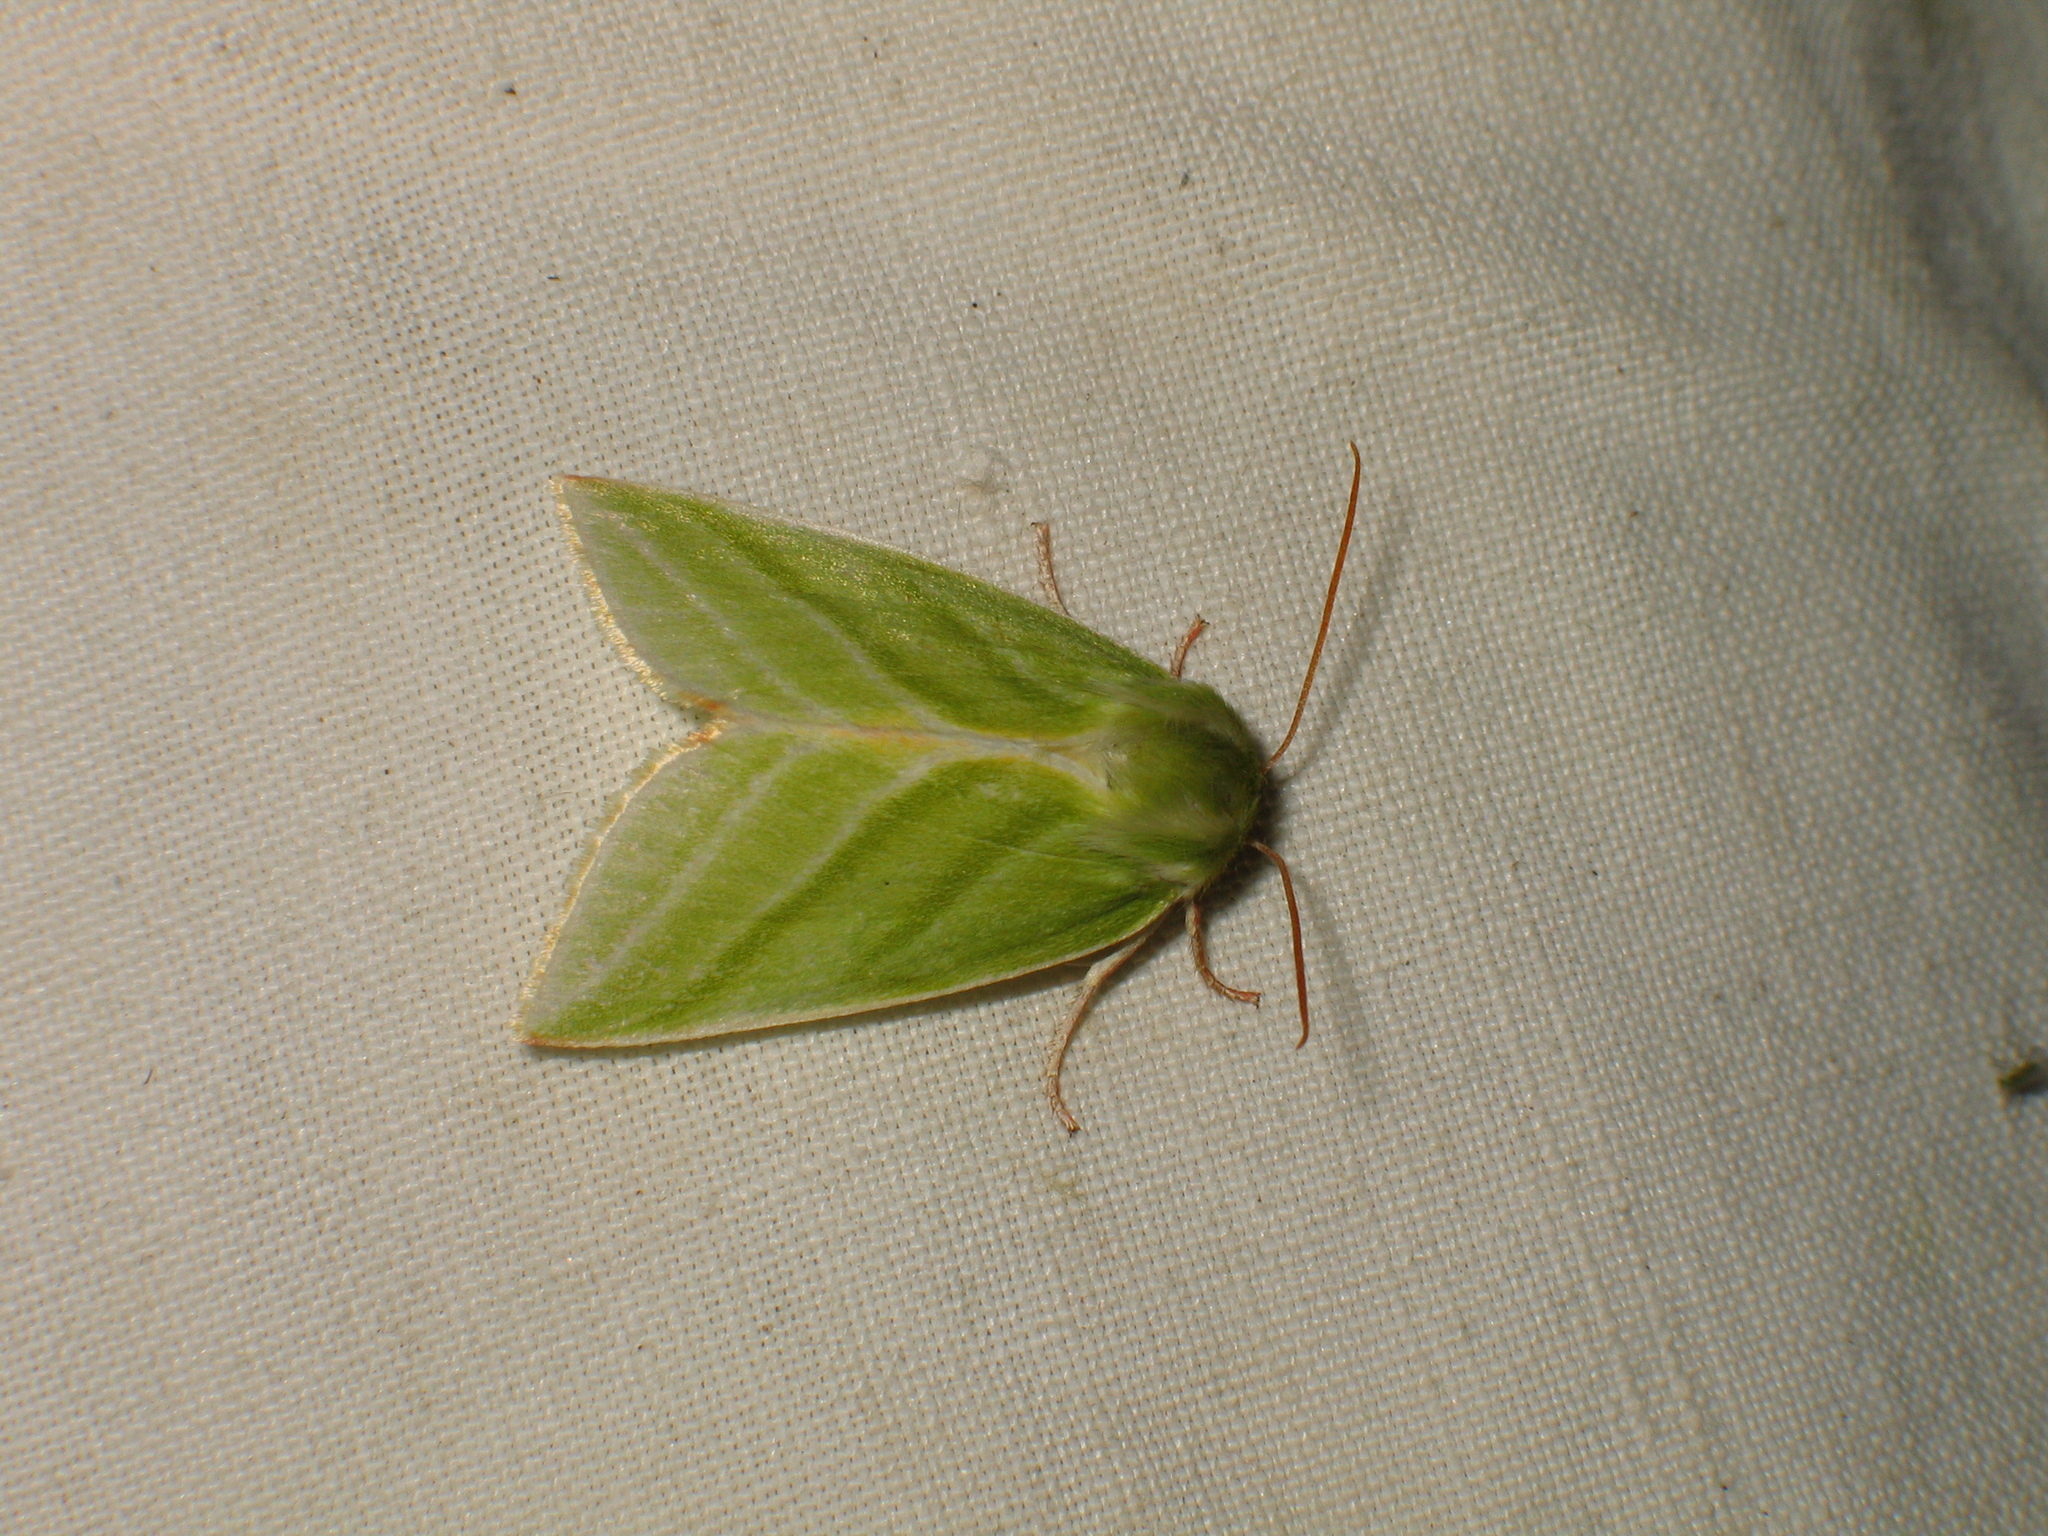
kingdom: Animalia
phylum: Arthropoda
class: Insecta
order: Lepidoptera
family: Nolidae
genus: Pseudoips
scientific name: Pseudoips prasinana
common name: Green silver-lines
